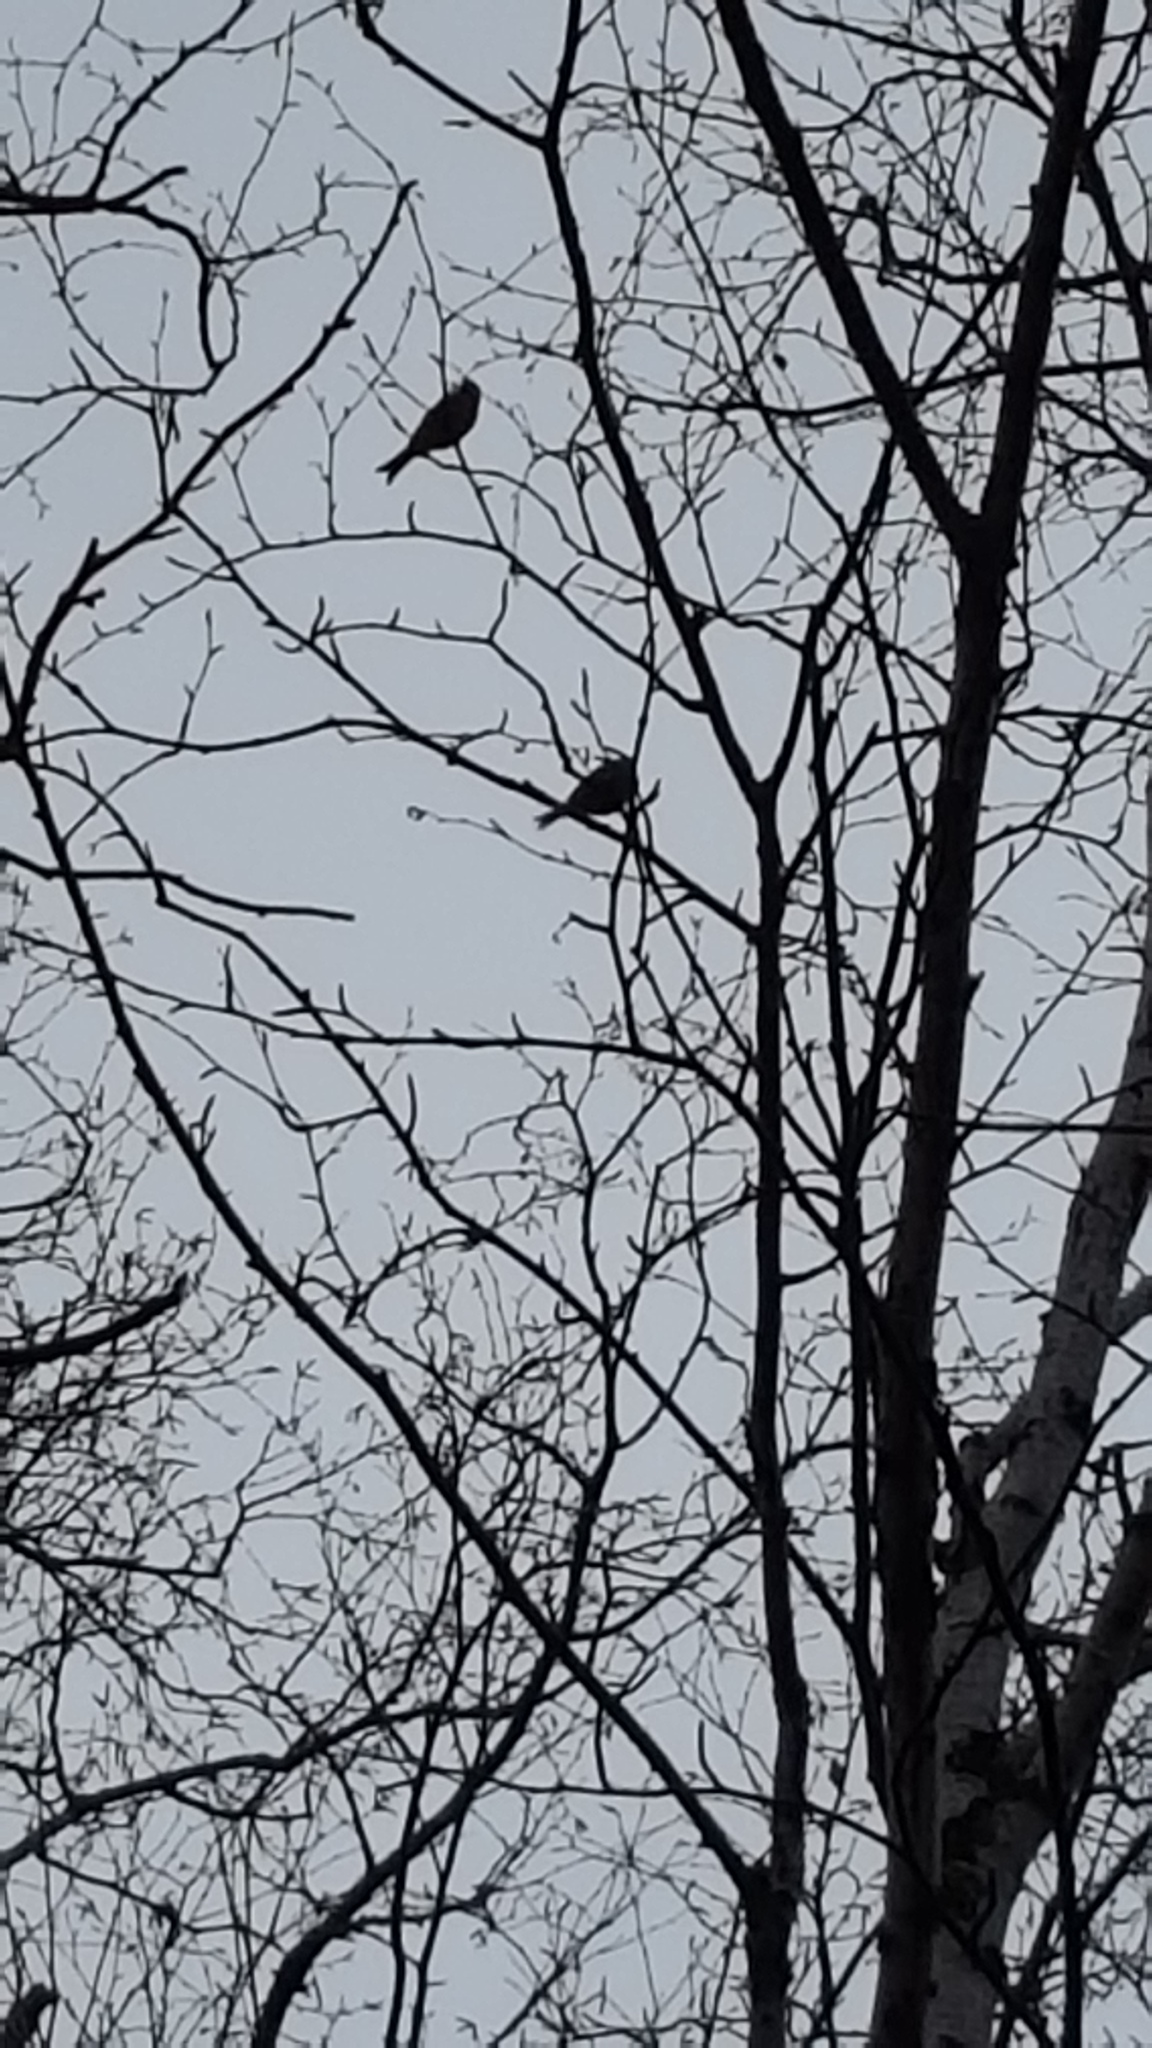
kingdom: Animalia
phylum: Chordata
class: Aves
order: Passeriformes
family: Fringillidae
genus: Acanthis
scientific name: Acanthis flammea
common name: Common redpoll
